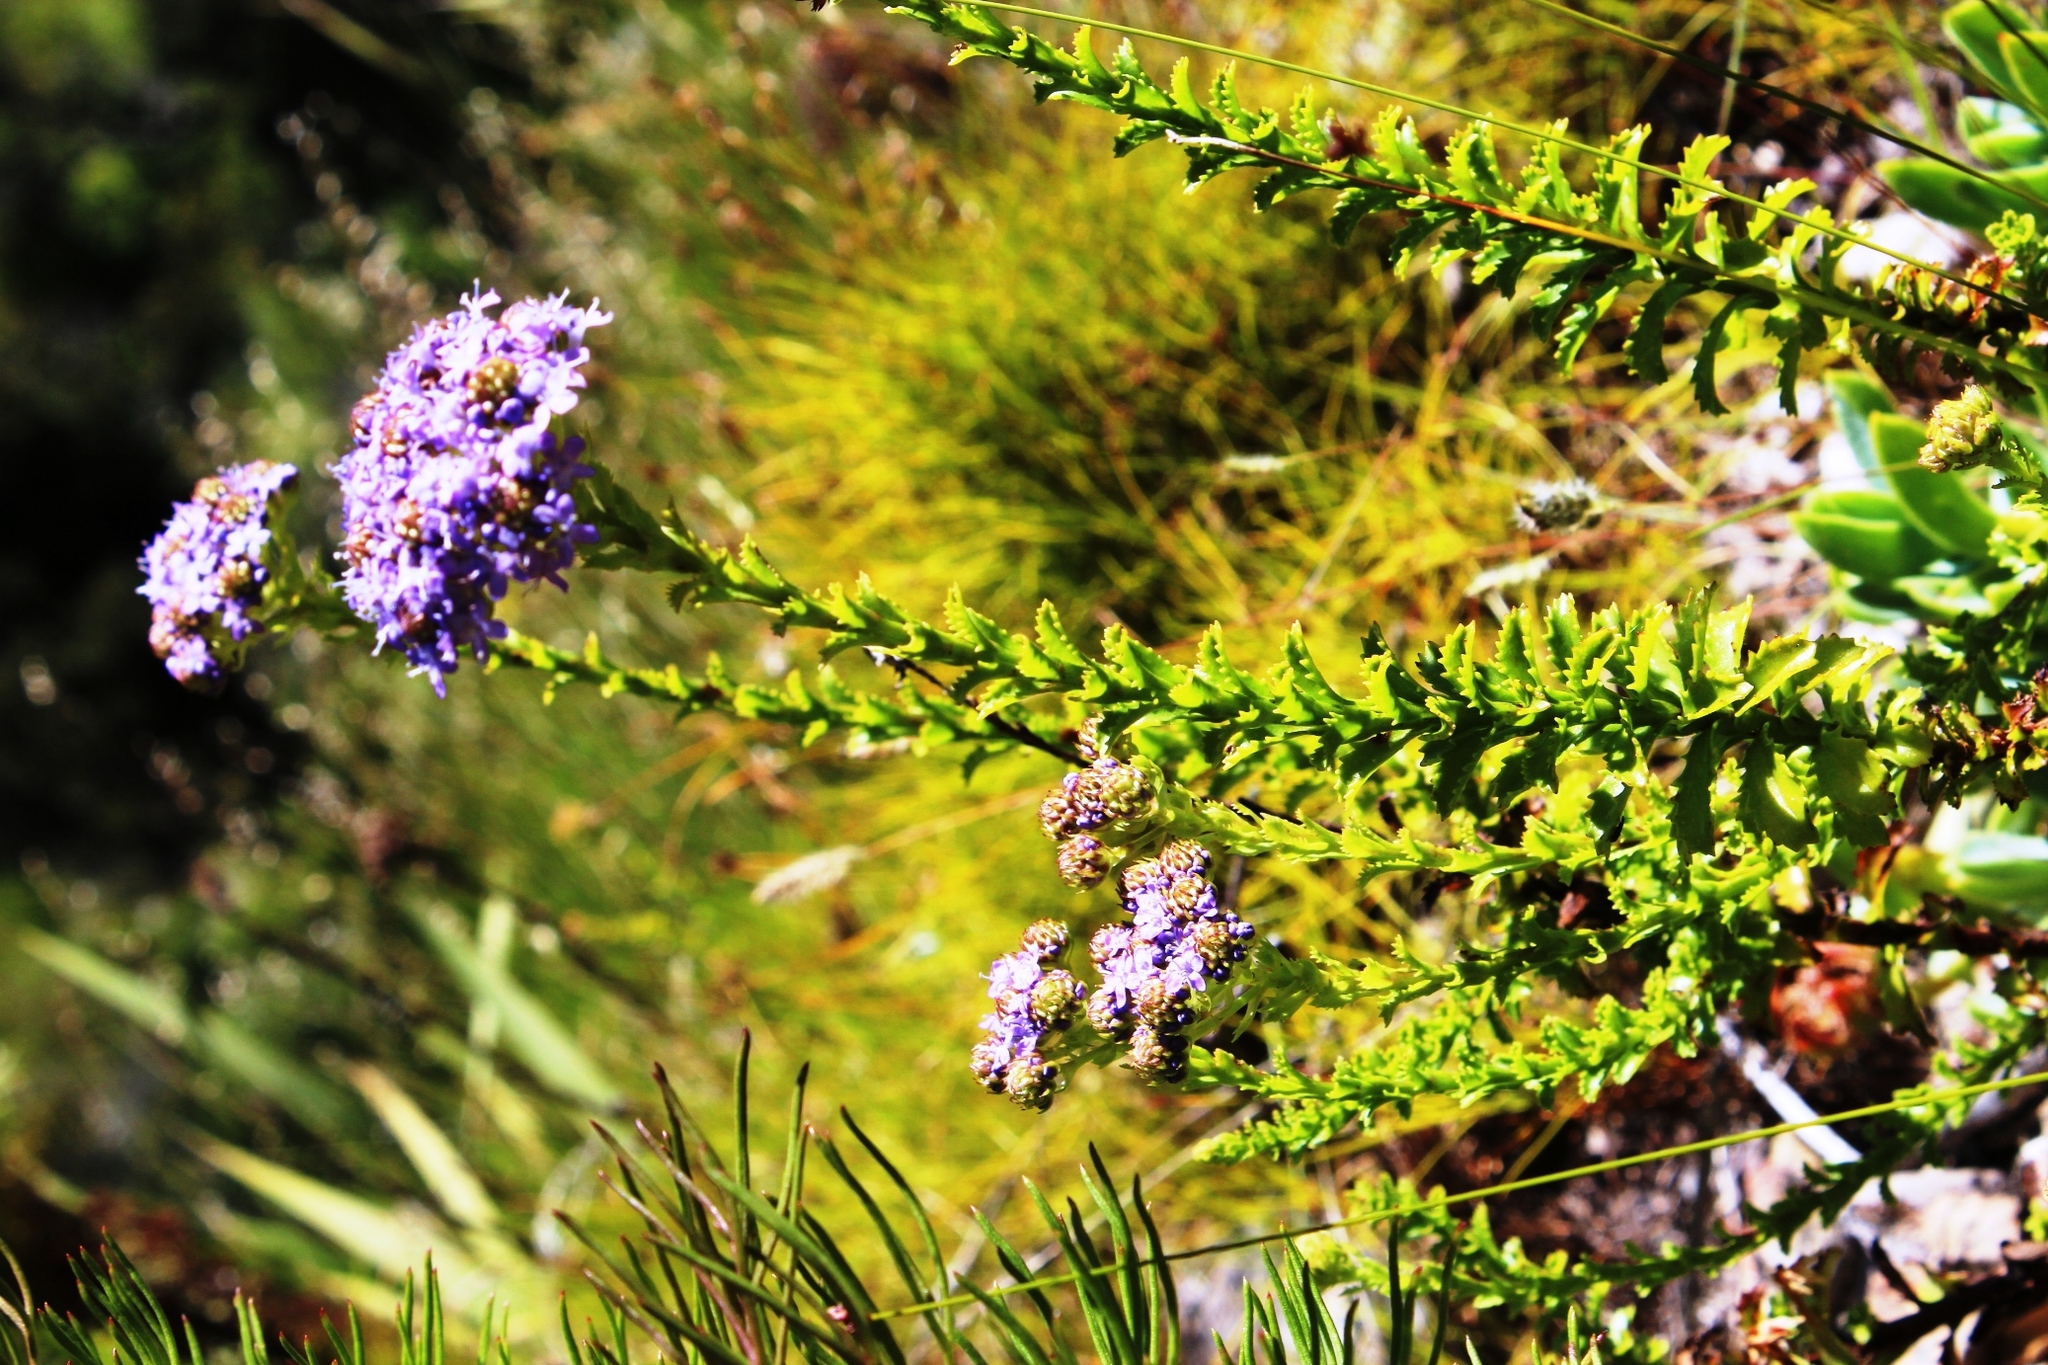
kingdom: Plantae
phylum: Tracheophyta
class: Magnoliopsida
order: Lamiales
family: Scrophulariaceae
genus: Pseudoselago
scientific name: Pseudoselago serrata
